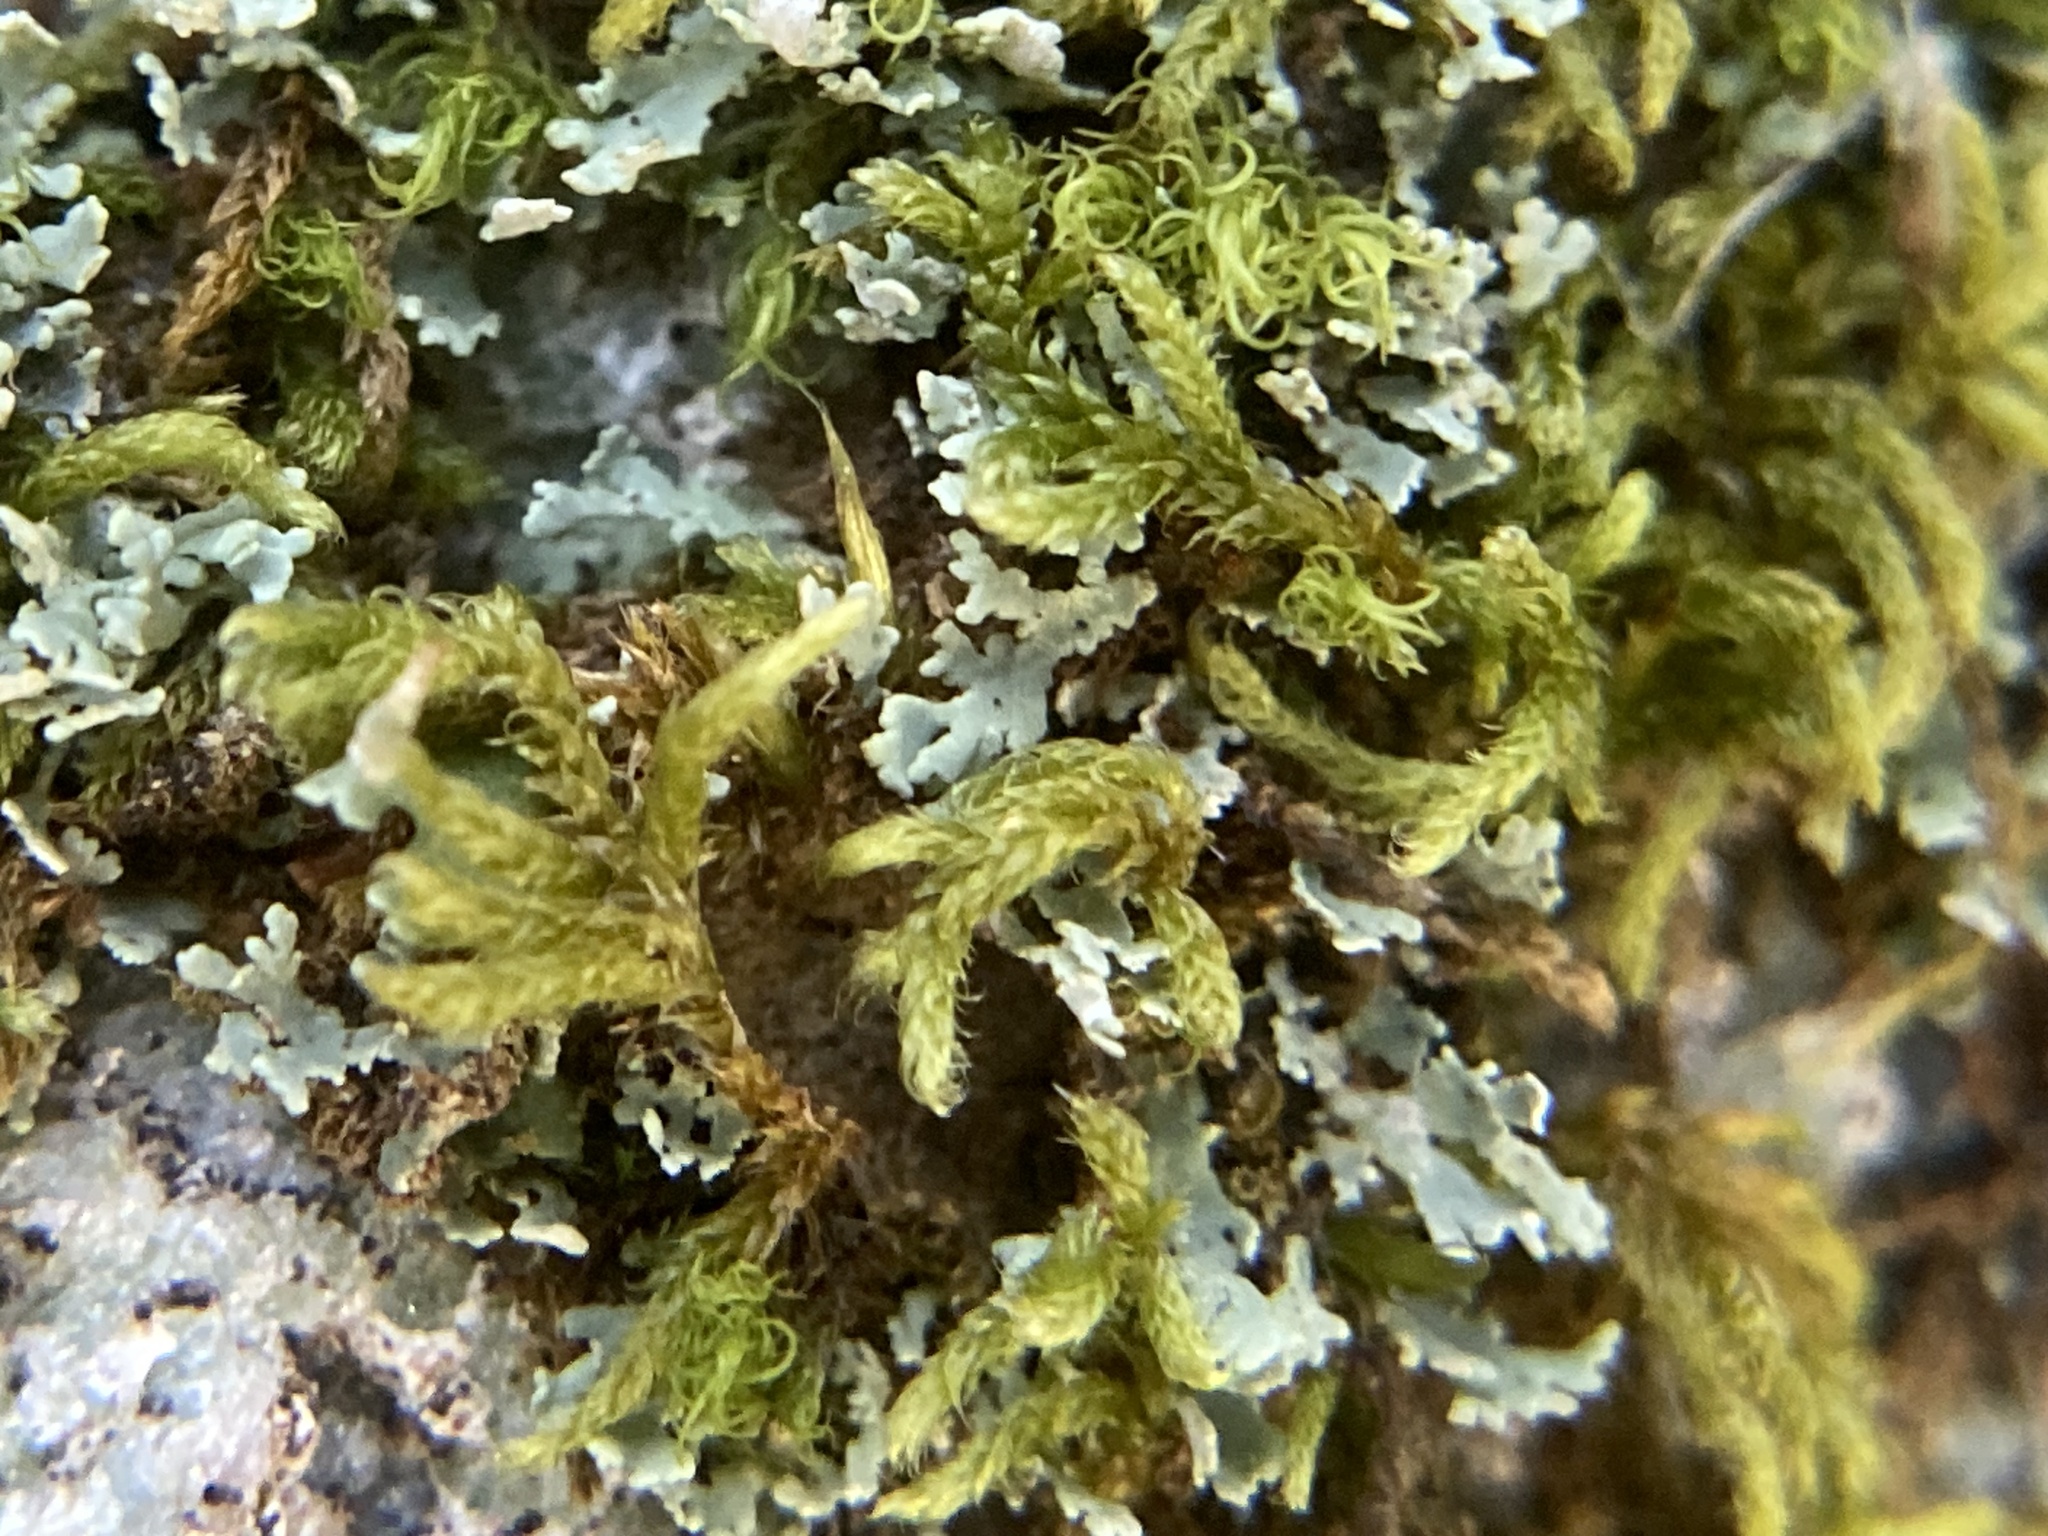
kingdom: Plantae
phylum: Bryophyta
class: Bryopsida
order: Hypnales
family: Callicladiaceae
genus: Callicladium
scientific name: Callicladium imponens
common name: Brocade moss
